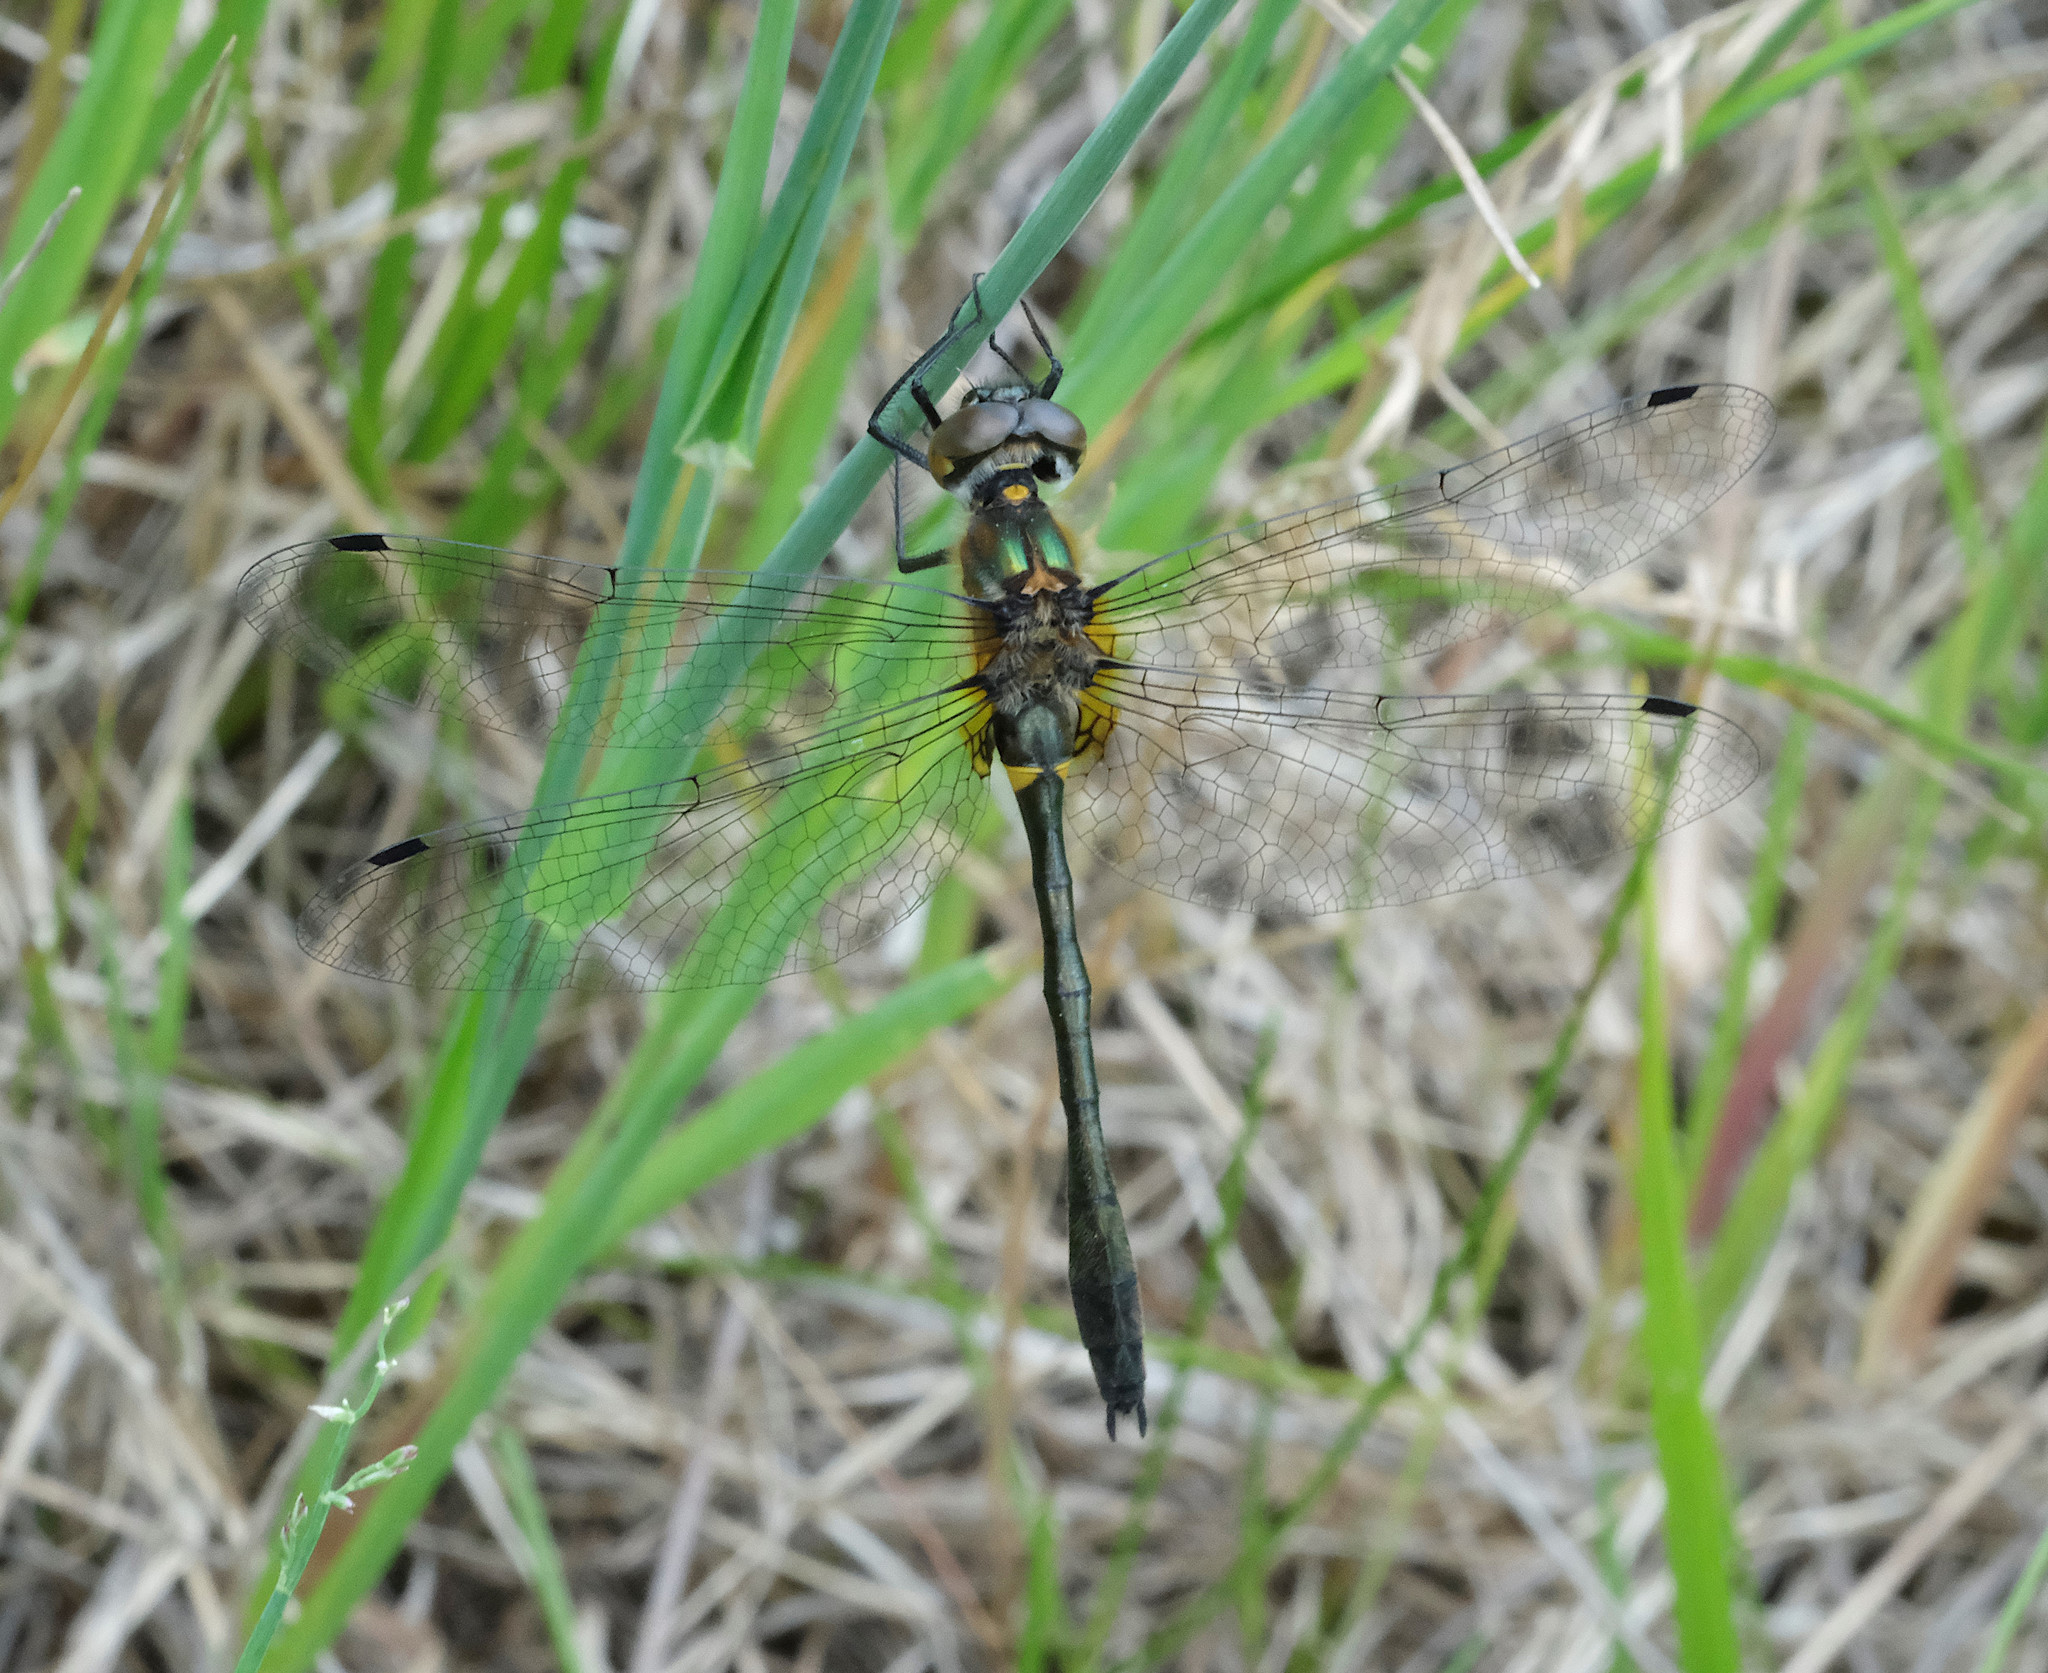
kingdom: Animalia
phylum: Arthropoda
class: Insecta
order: Odonata
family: Corduliidae
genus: Dorocordulia
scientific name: Dorocordulia libera
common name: Racket-tailed emerald
